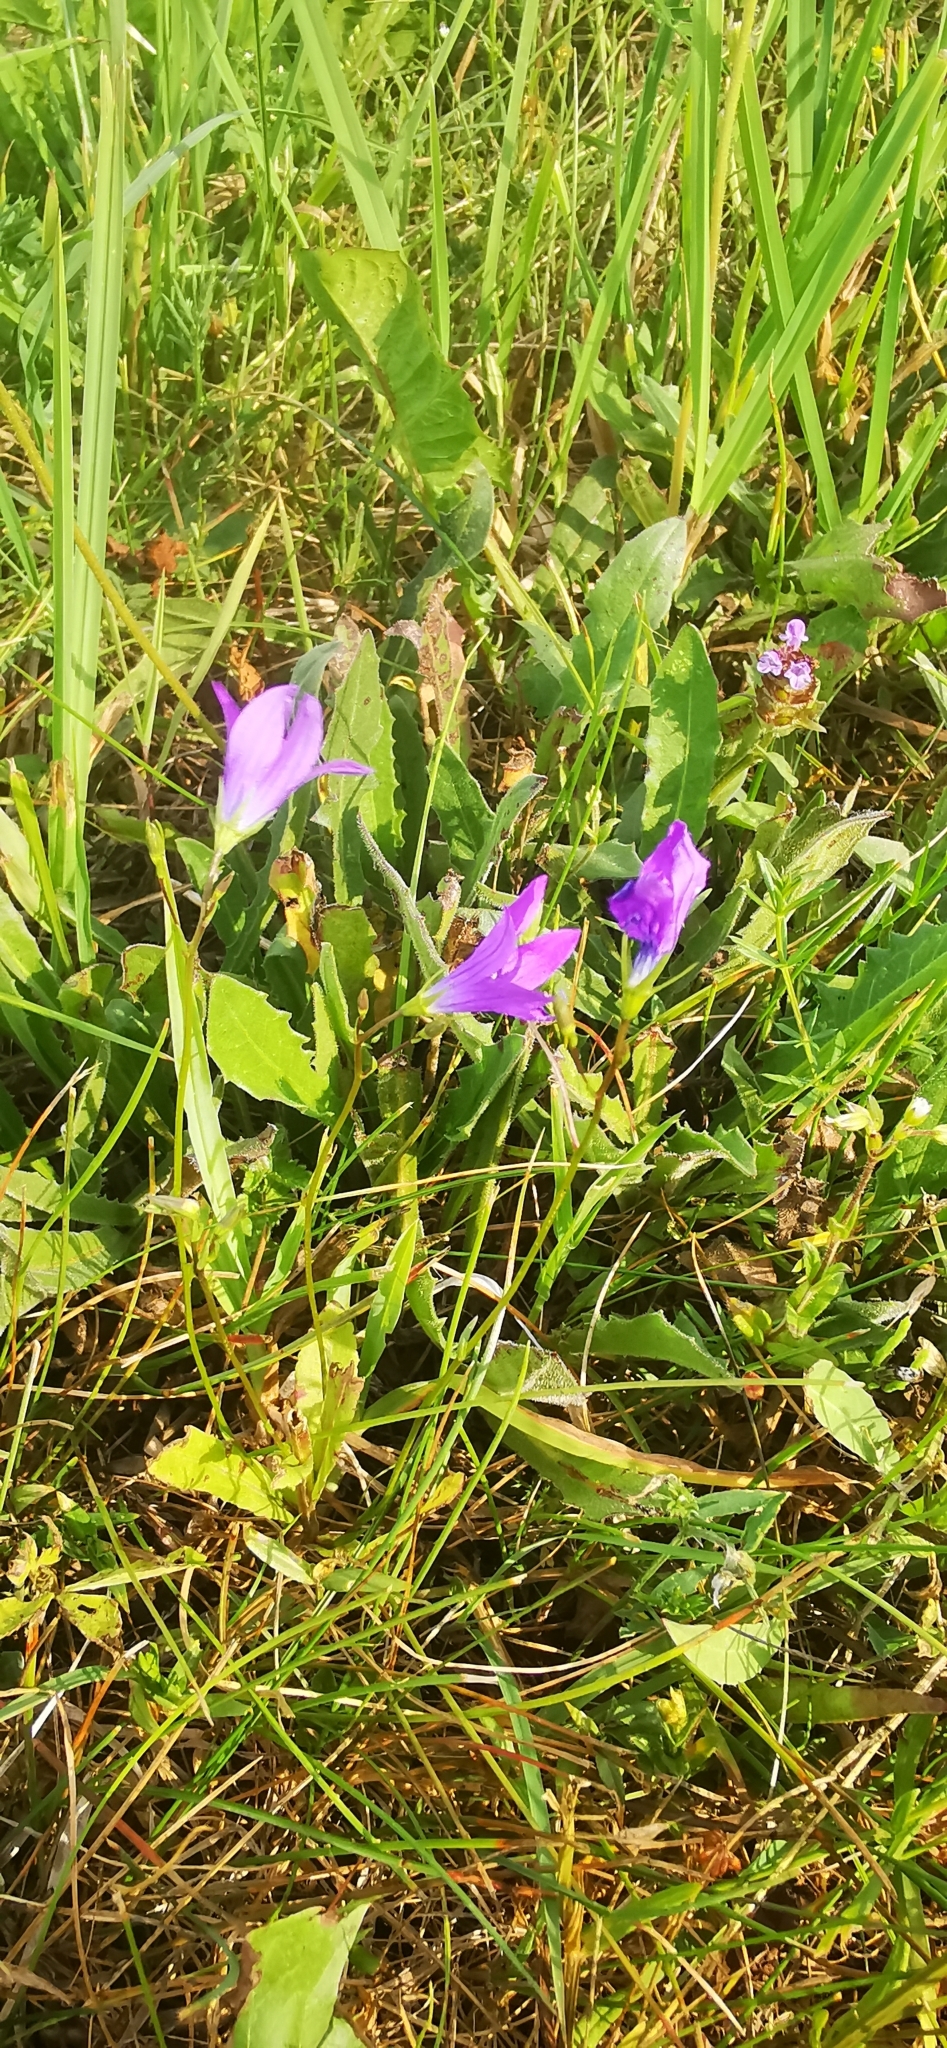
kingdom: Plantae
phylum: Tracheophyta
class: Magnoliopsida
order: Asterales
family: Campanulaceae
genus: Campanula
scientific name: Campanula patula
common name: Spreading bellflower
